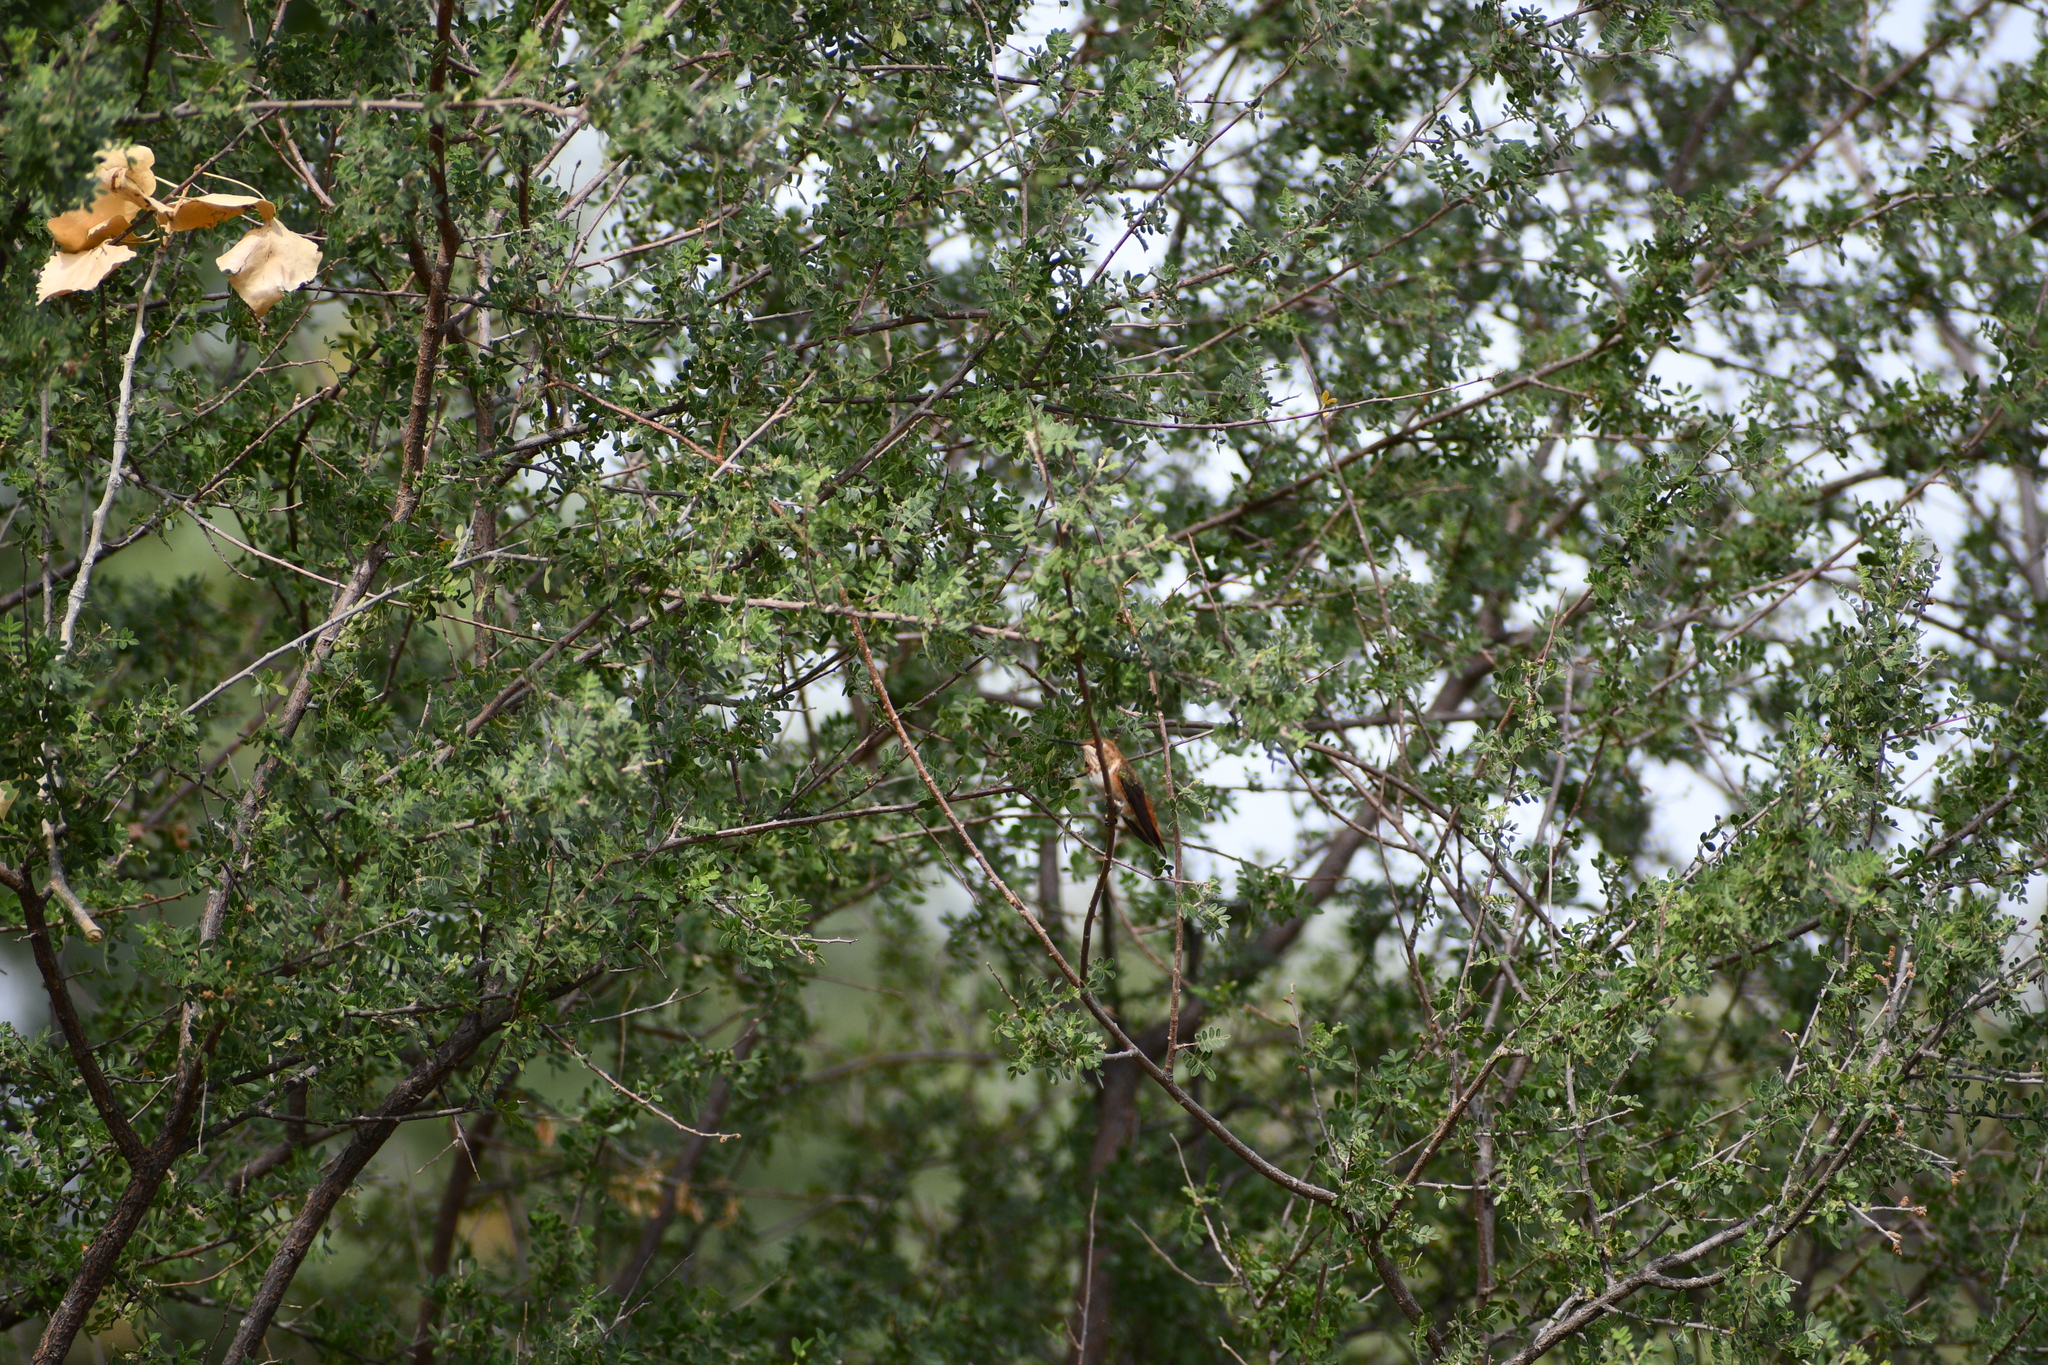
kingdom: Animalia
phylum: Chordata
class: Aves
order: Apodiformes
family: Trochilidae
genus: Selasphorus
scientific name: Selasphorus rufus
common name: Rufous hummingbird
